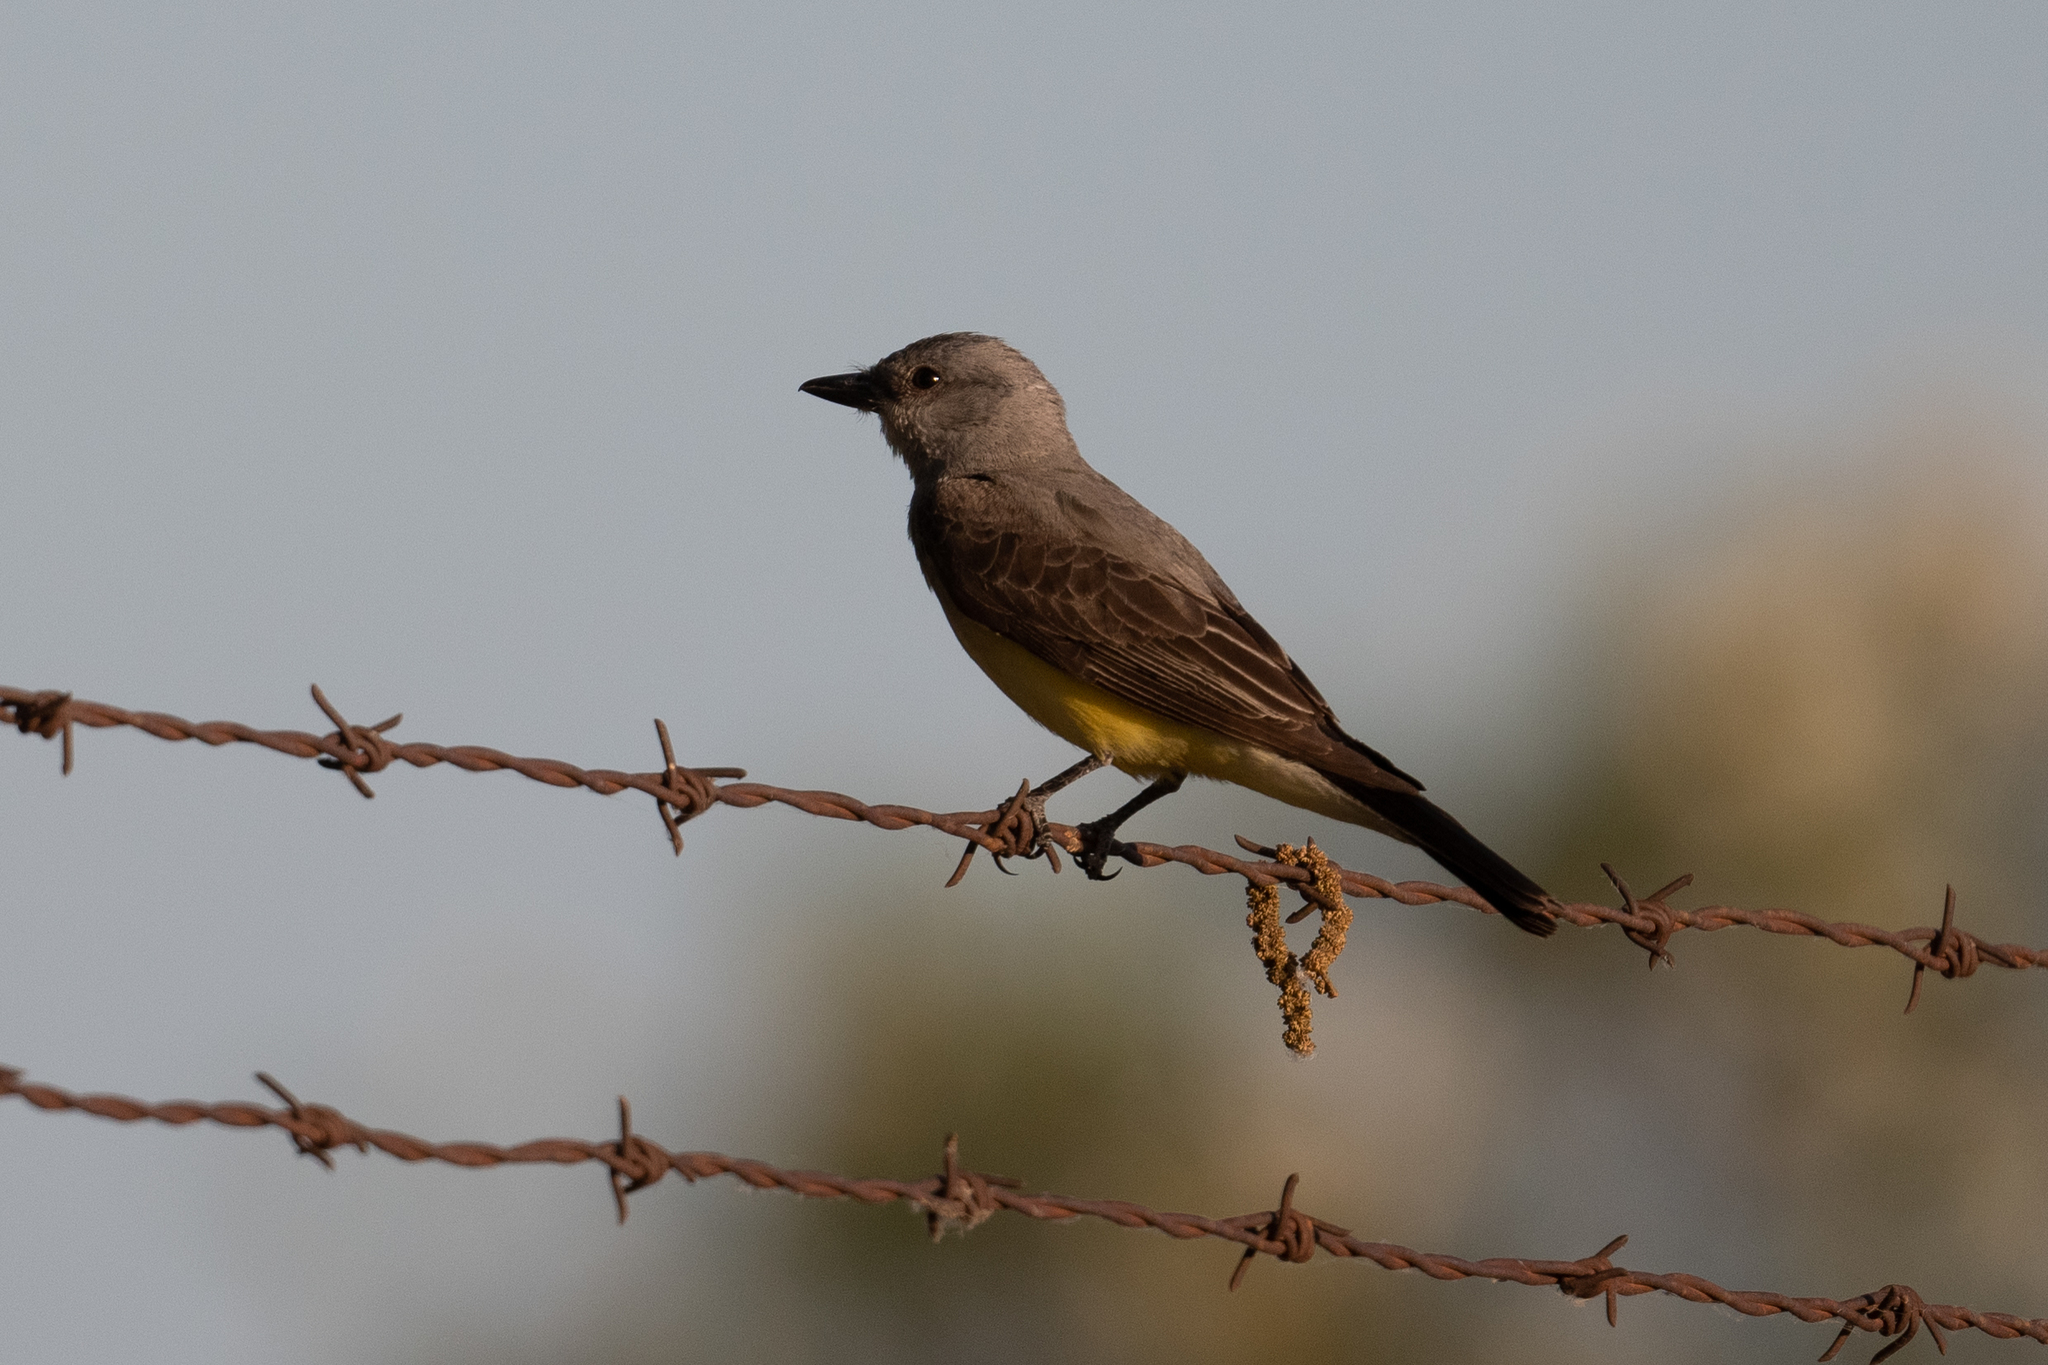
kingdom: Animalia
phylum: Chordata
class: Aves
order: Passeriformes
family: Tyrannidae
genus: Tyrannus
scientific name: Tyrannus verticalis
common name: Western kingbird
